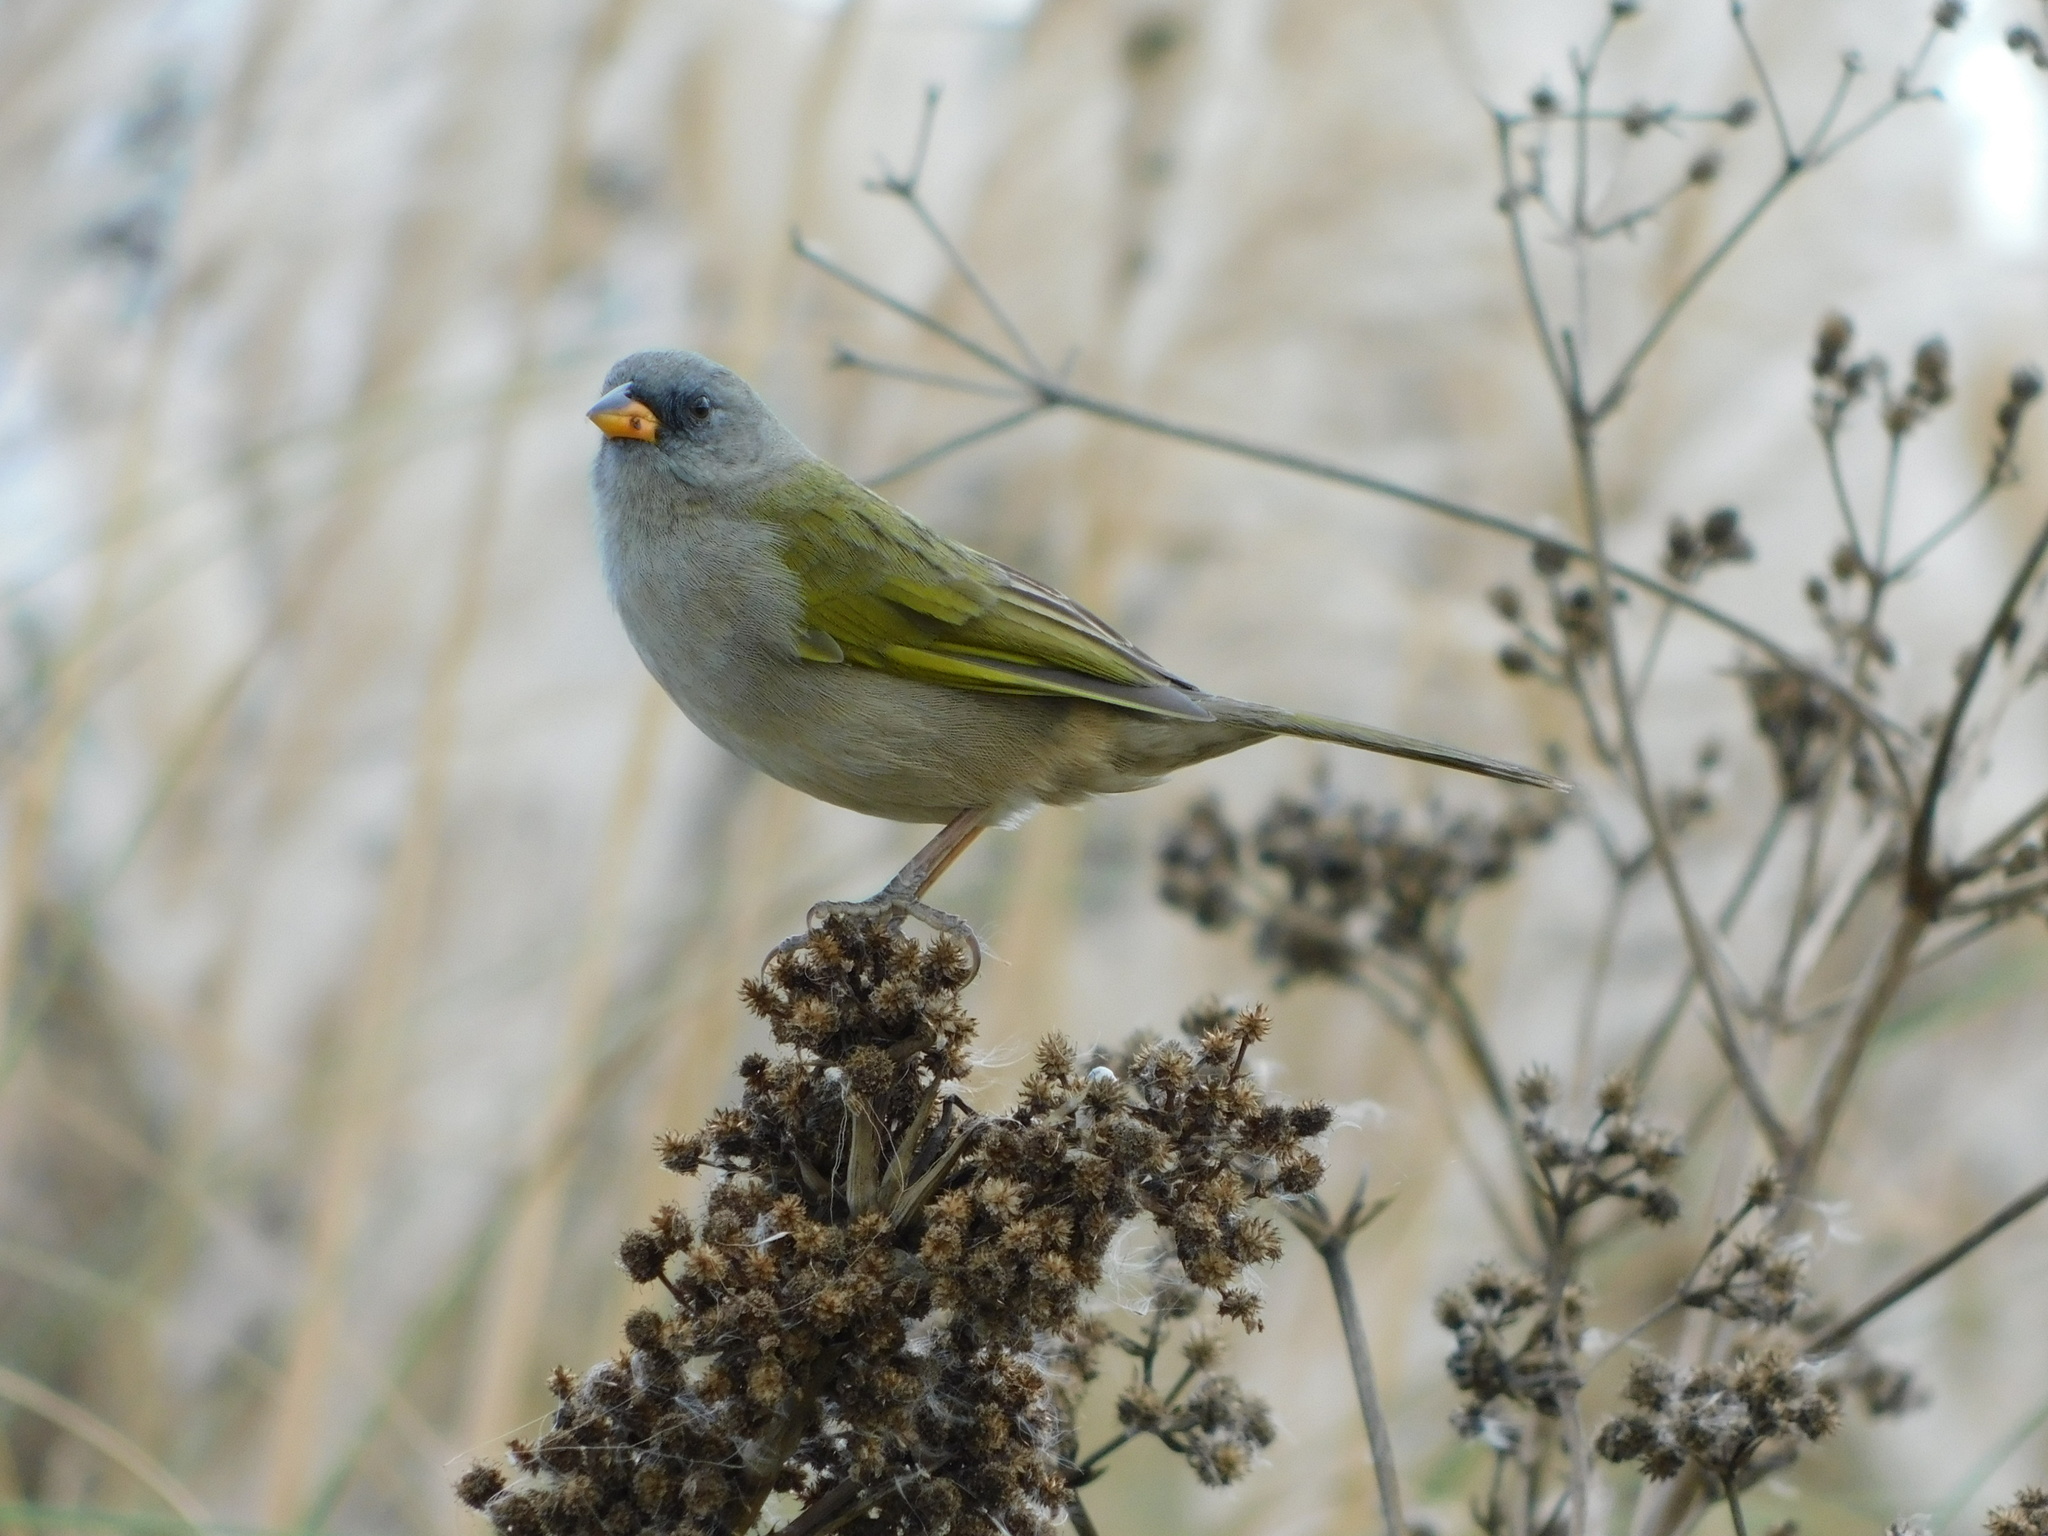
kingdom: Animalia
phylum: Chordata
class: Aves
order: Passeriformes
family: Thraupidae
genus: Embernagra
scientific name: Embernagra platensis
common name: Pampa finch
